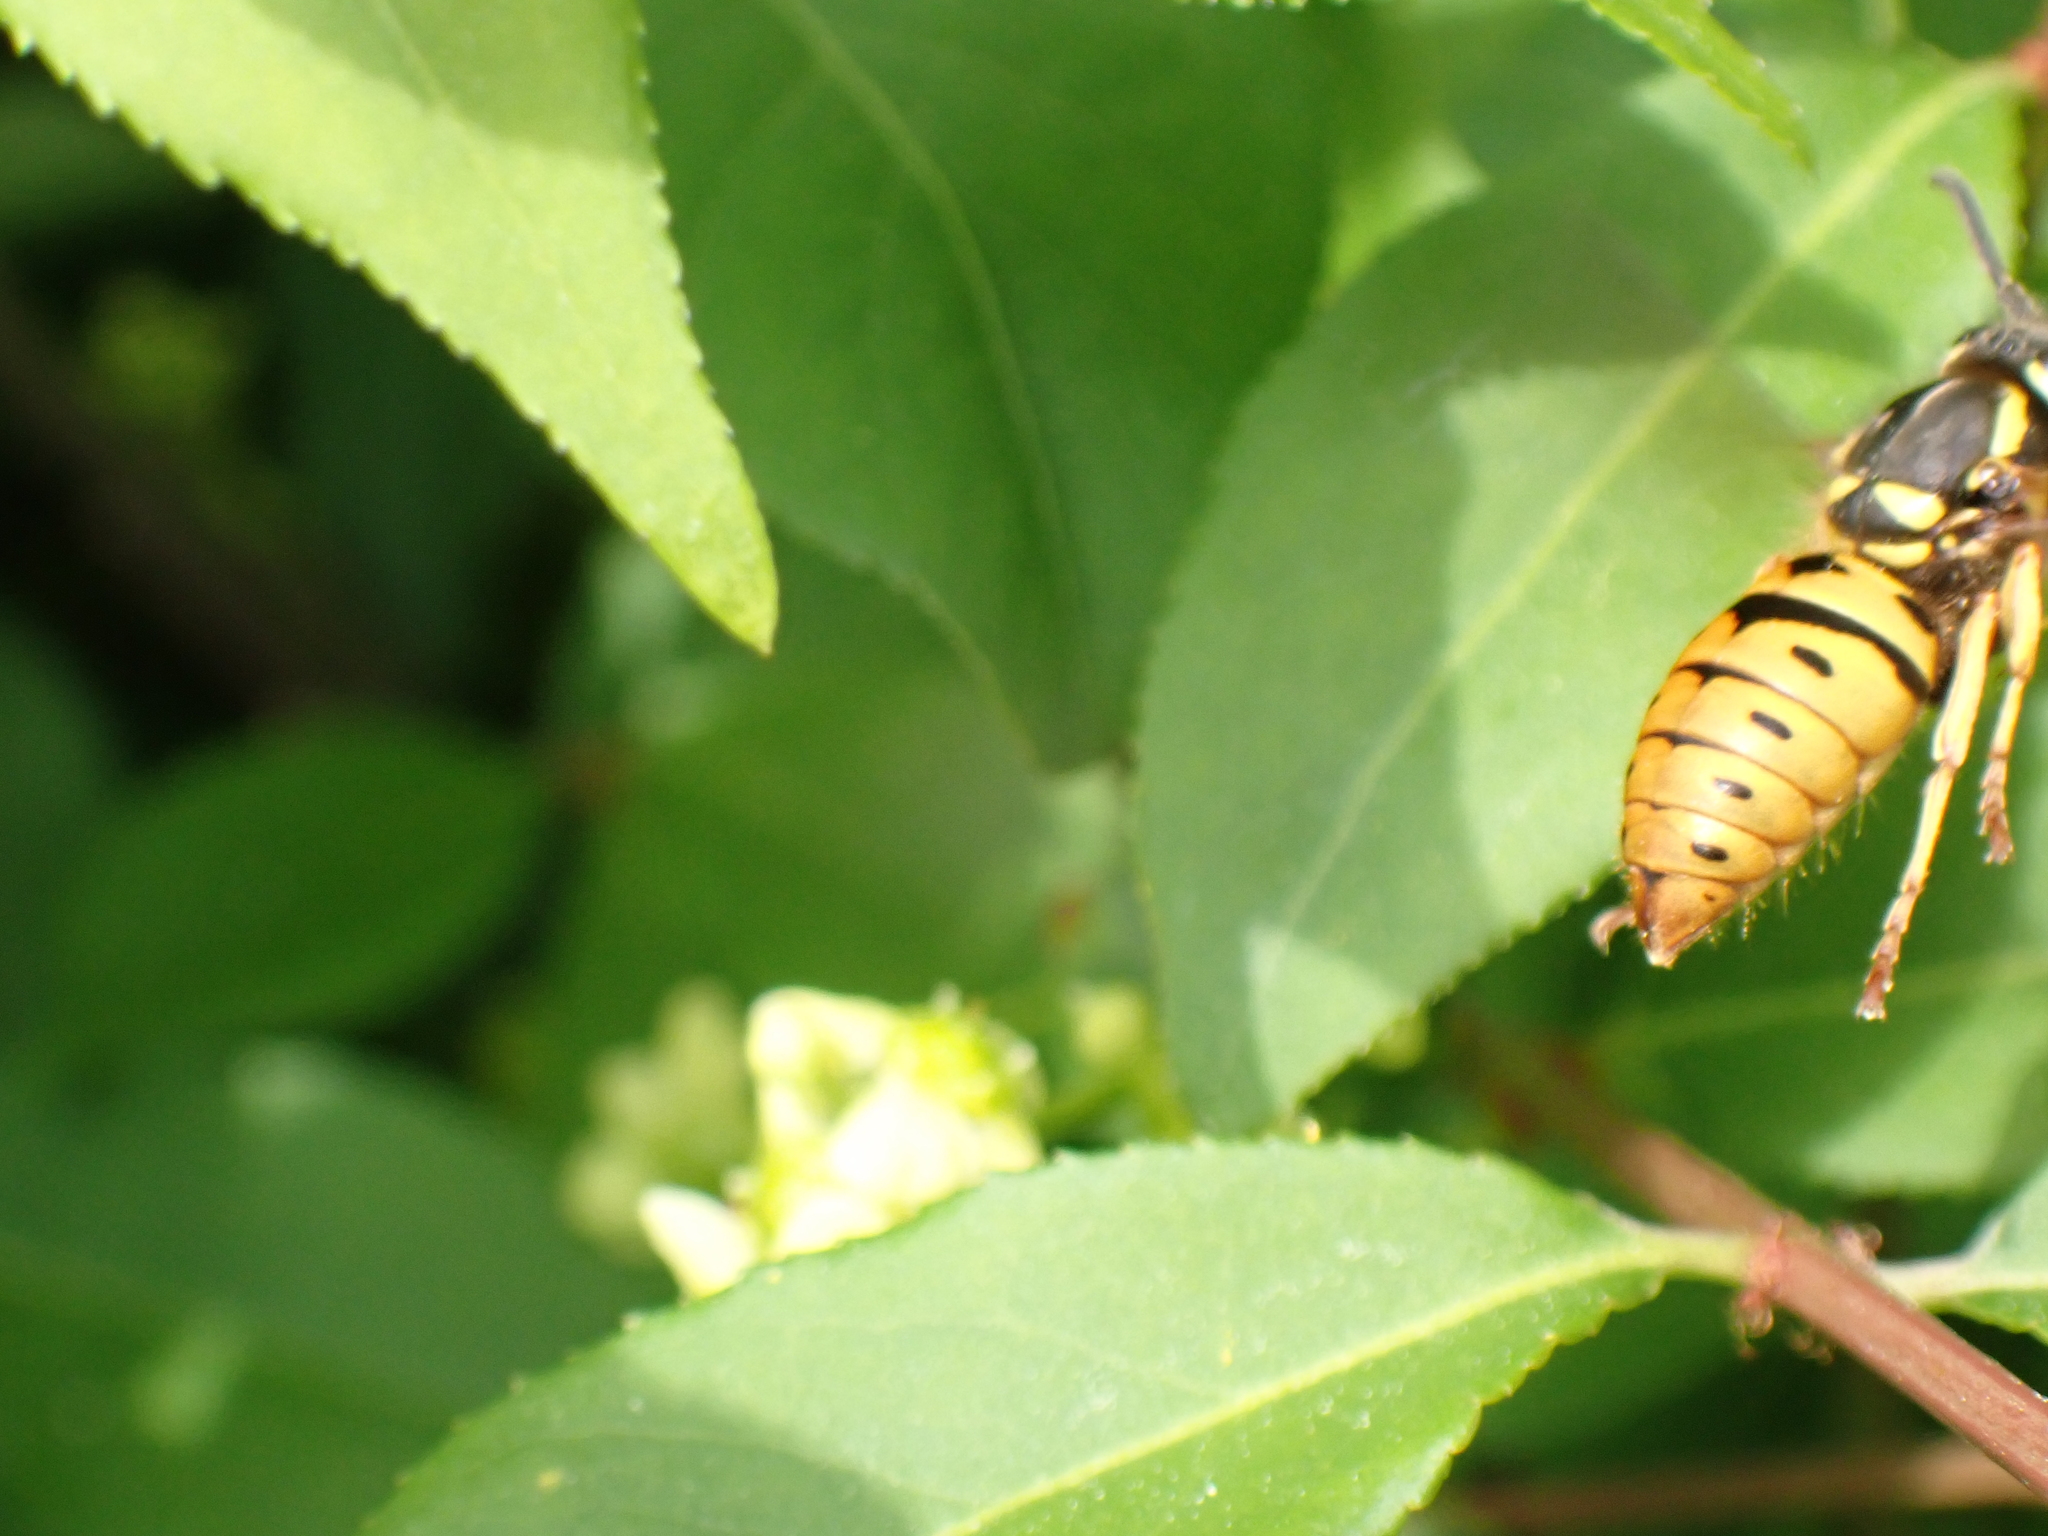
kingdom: Animalia
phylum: Arthropoda
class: Insecta
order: Hymenoptera
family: Vespidae
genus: Vespula
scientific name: Vespula maculifrons
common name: Eastern yellowjacket
